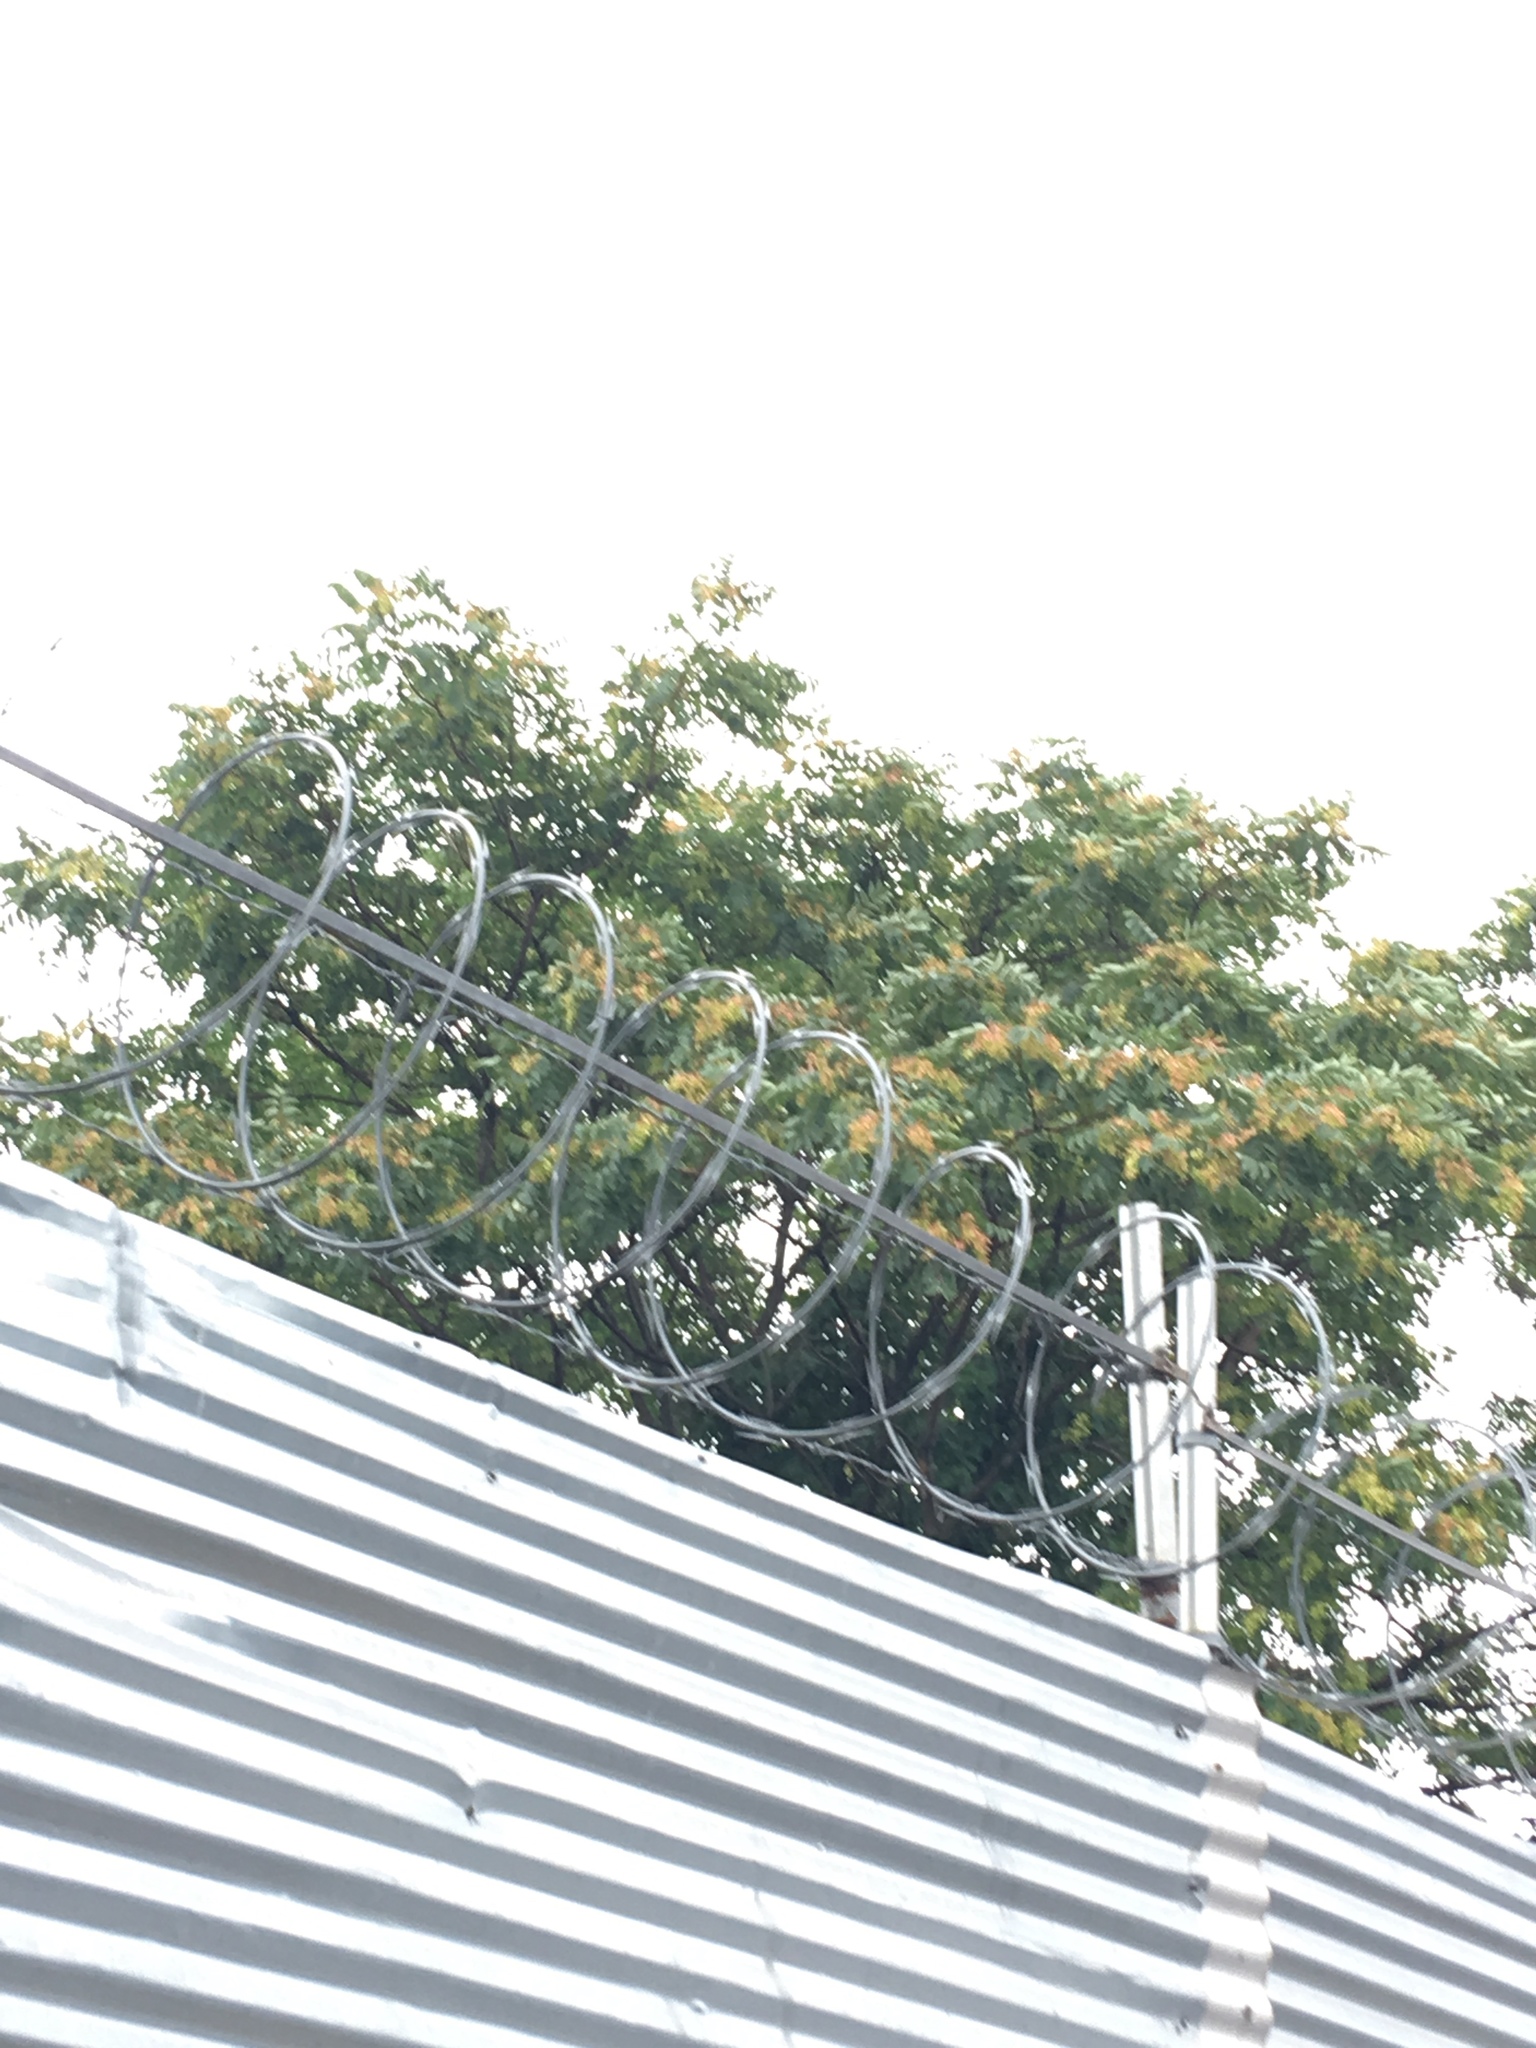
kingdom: Plantae
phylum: Tracheophyta
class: Magnoliopsida
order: Sapindales
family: Simaroubaceae
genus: Ailanthus
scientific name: Ailanthus altissima
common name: Tree-of-heaven
